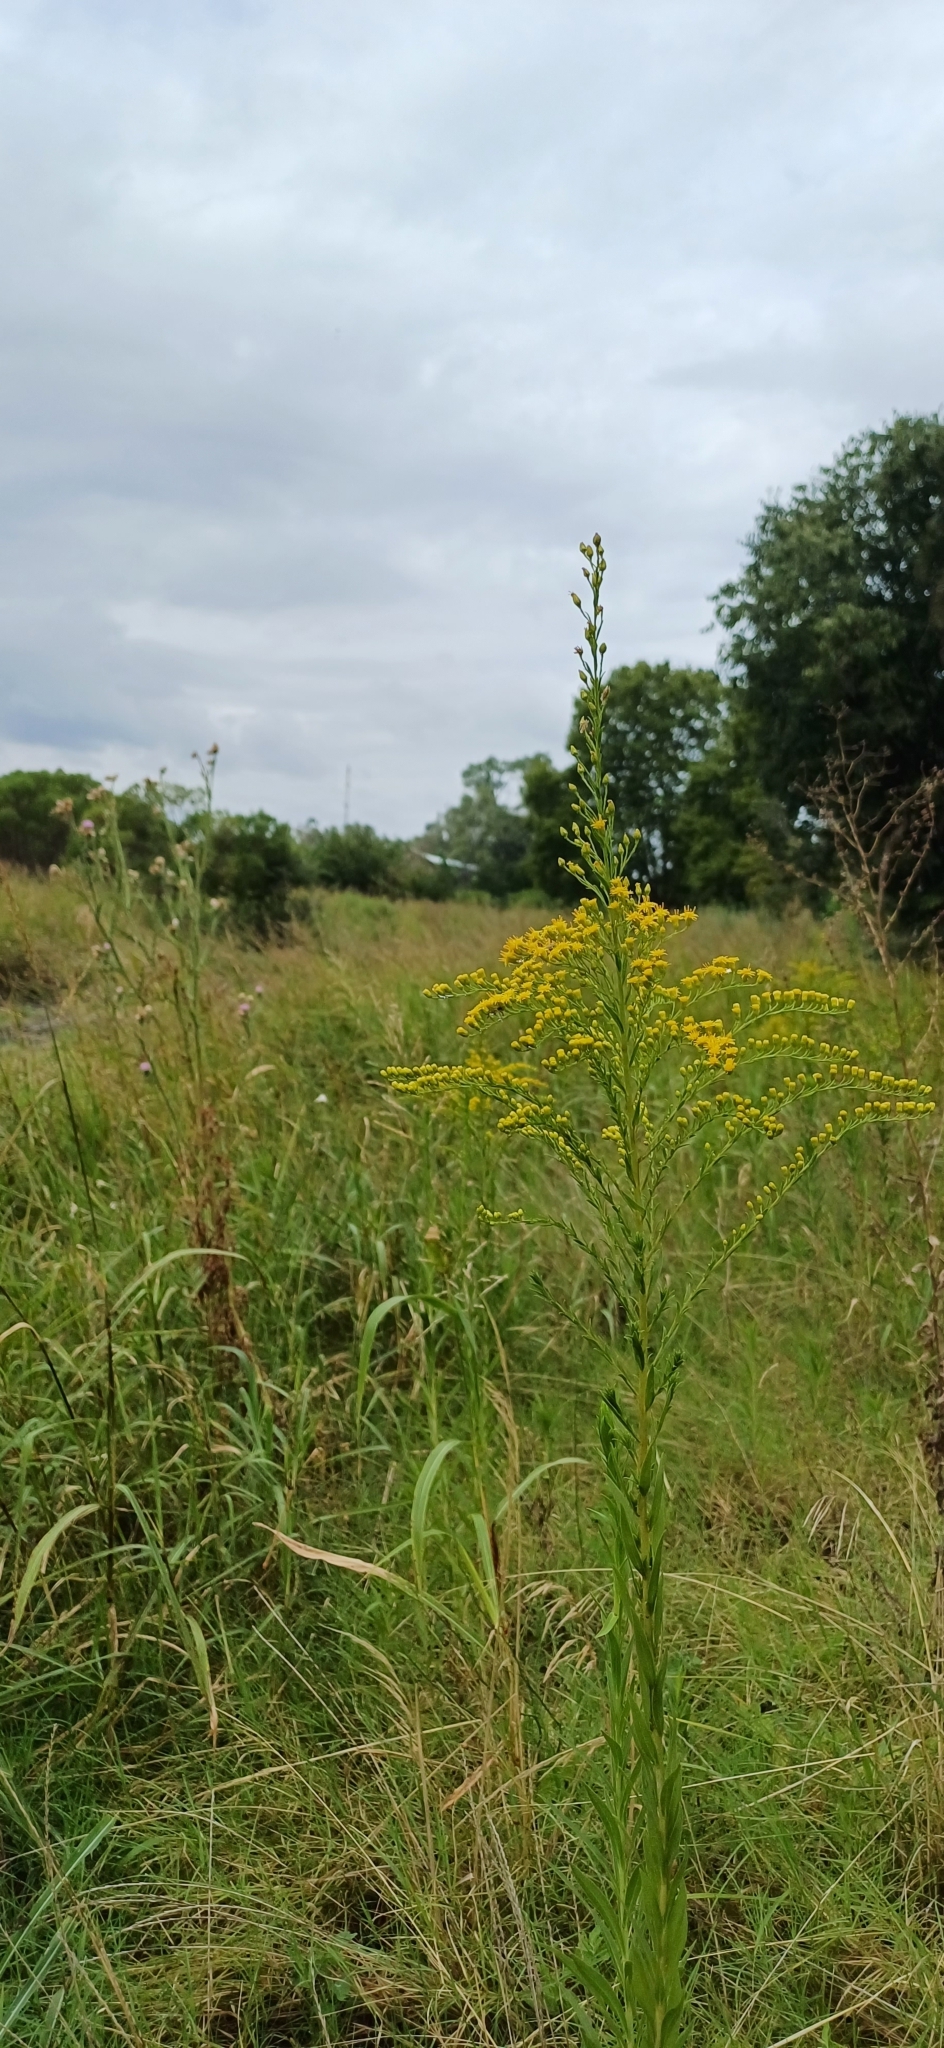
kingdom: Plantae
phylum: Tracheophyta
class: Magnoliopsida
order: Asterales
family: Asteraceae
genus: Solidago
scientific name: Solidago chilensis
